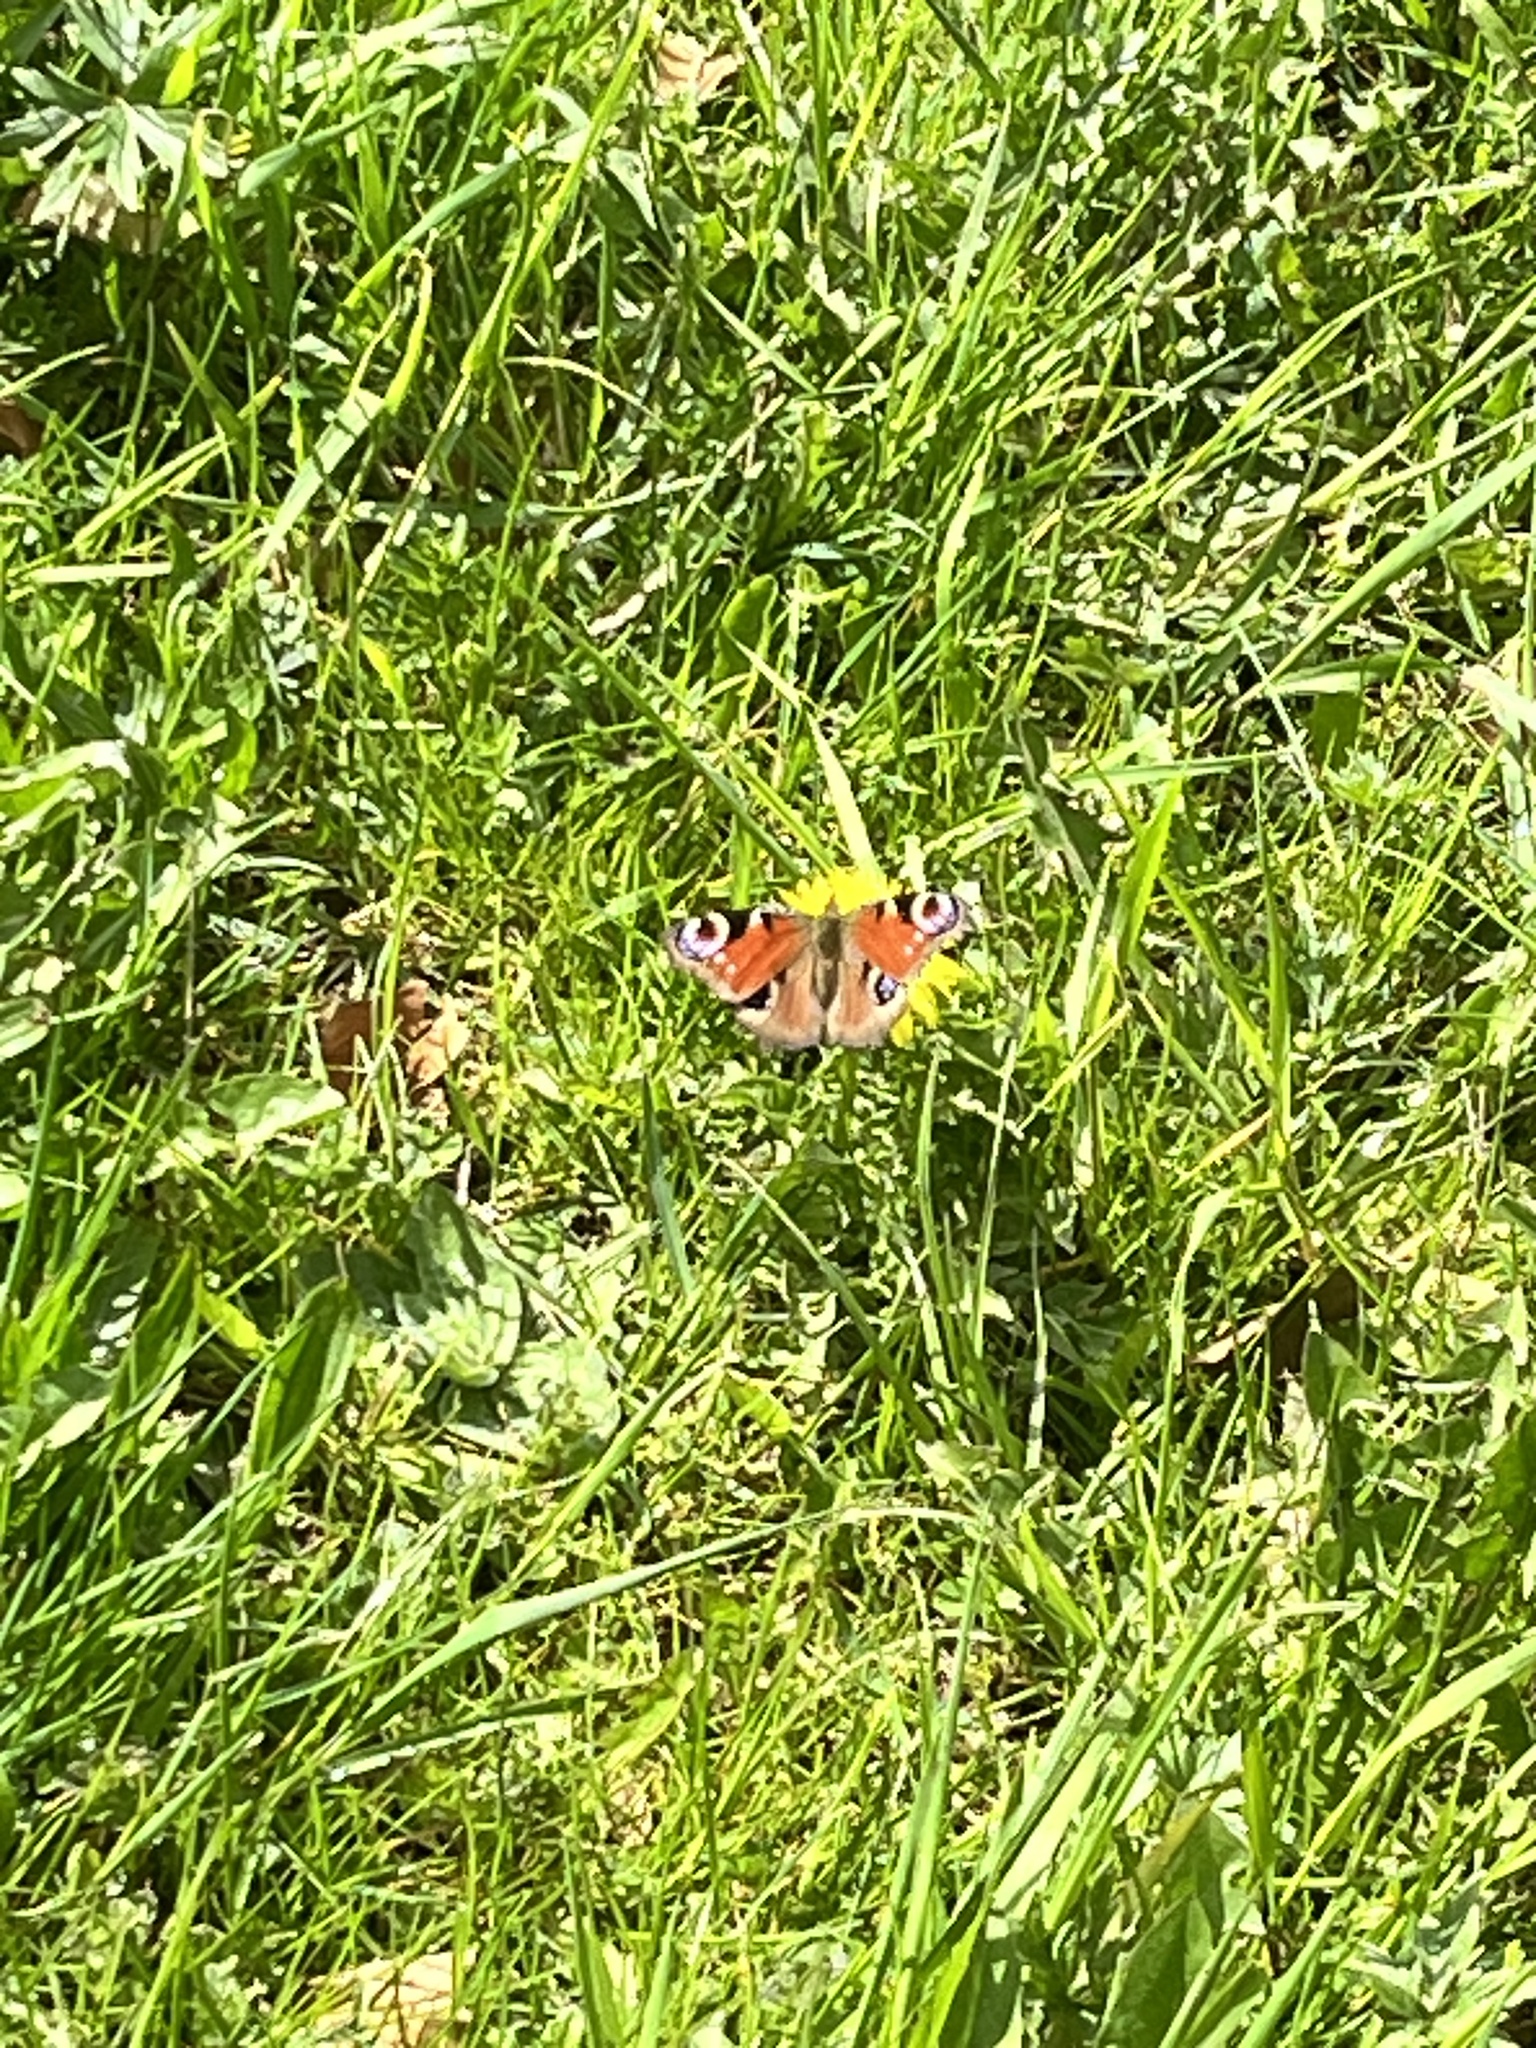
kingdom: Animalia
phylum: Arthropoda
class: Insecta
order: Lepidoptera
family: Nymphalidae
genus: Aglais
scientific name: Aglais io
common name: Peacock
